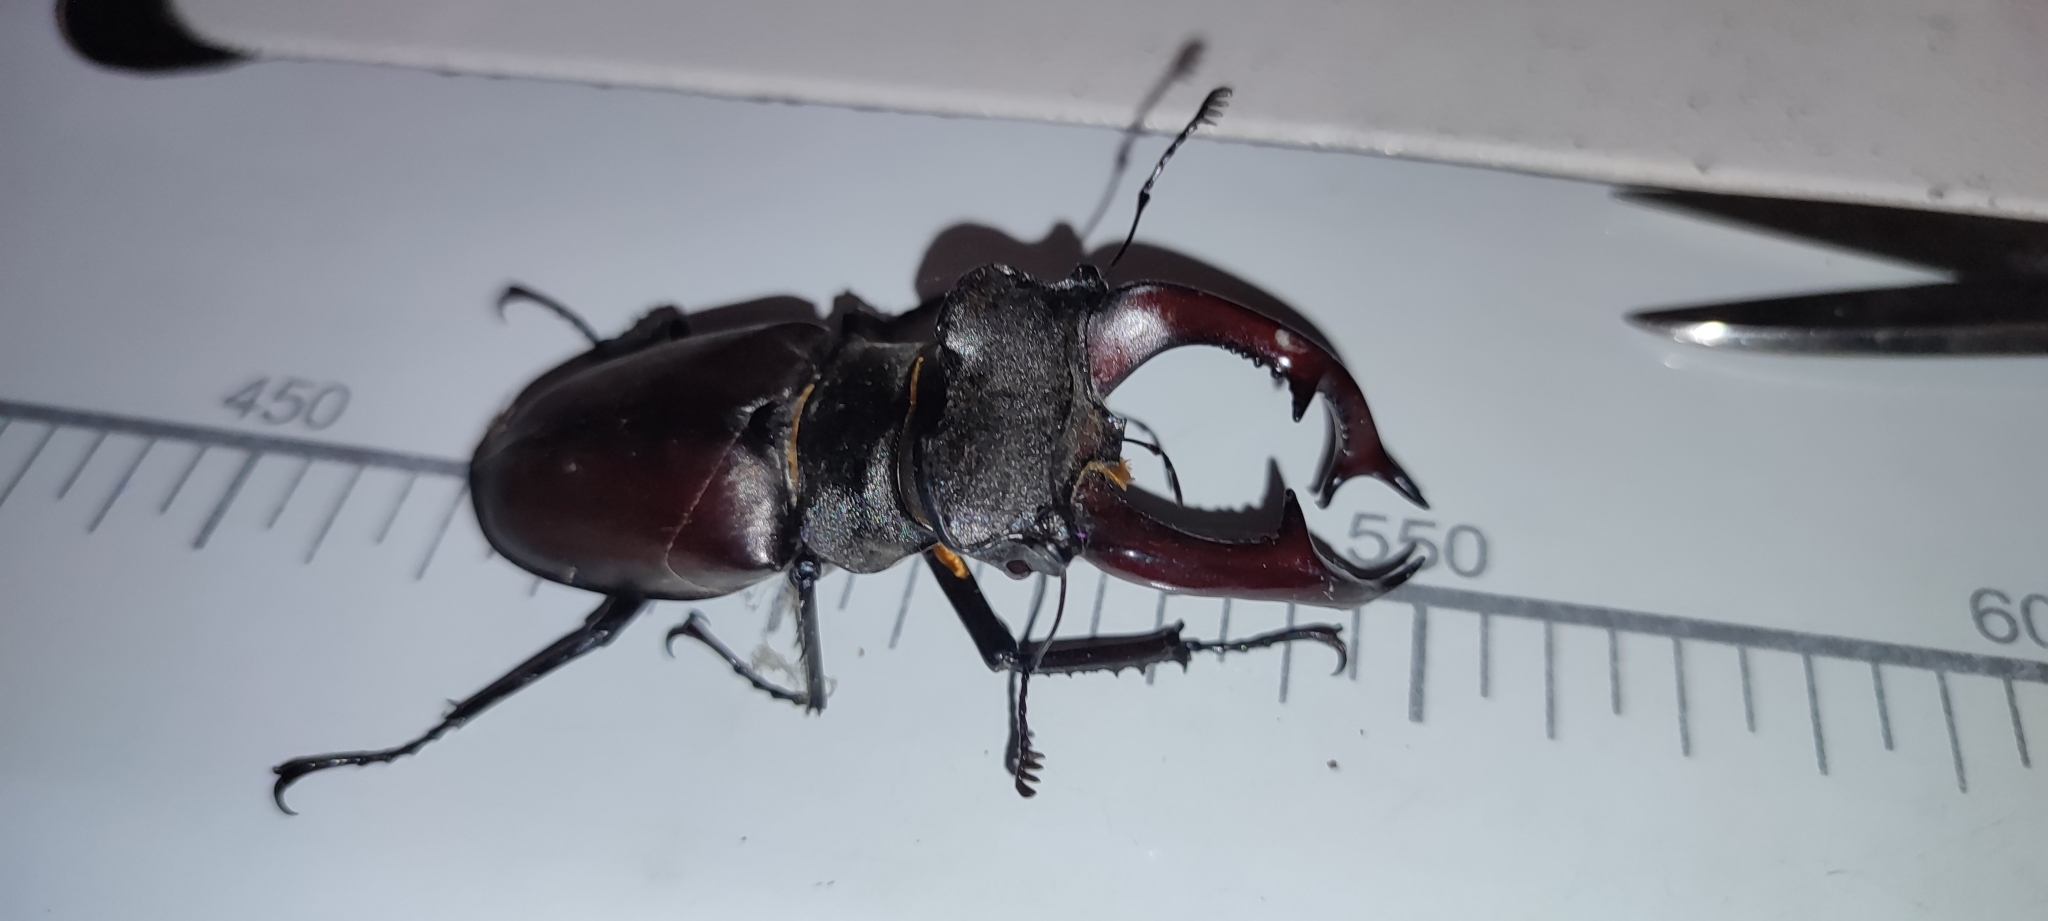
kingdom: Animalia
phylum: Arthropoda
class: Insecta
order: Coleoptera
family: Lucanidae
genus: Lucanus
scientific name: Lucanus cervus
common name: Stag beetle
